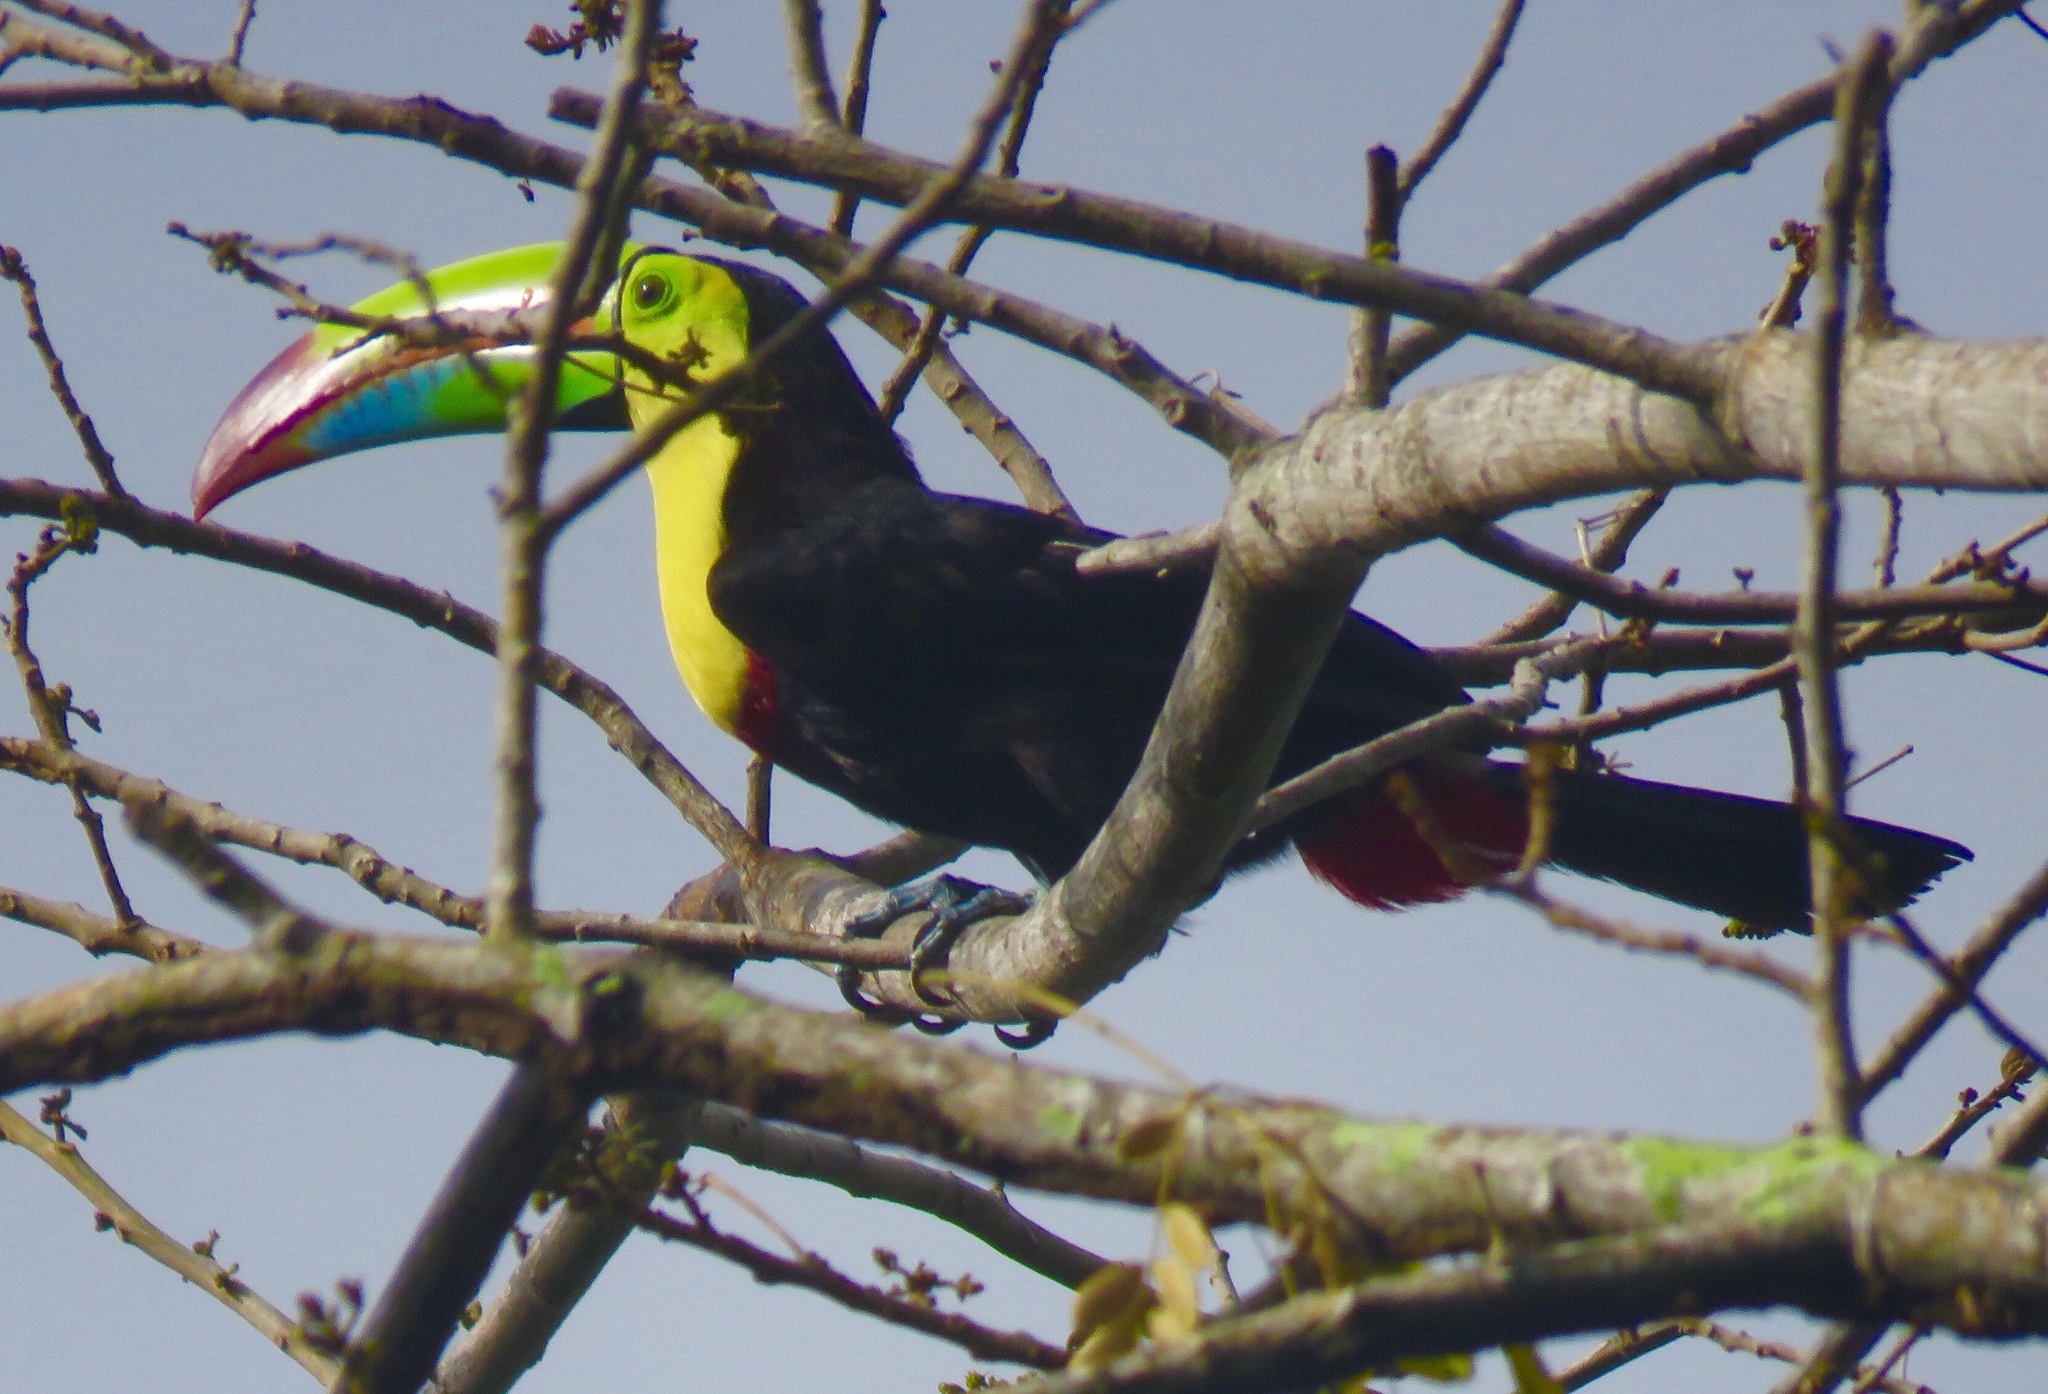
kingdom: Animalia
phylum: Chordata
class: Aves
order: Piciformes
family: Ramphastidae
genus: Ramphastos
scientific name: Ramphastos sulfuratus
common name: Keel-billed toucan
